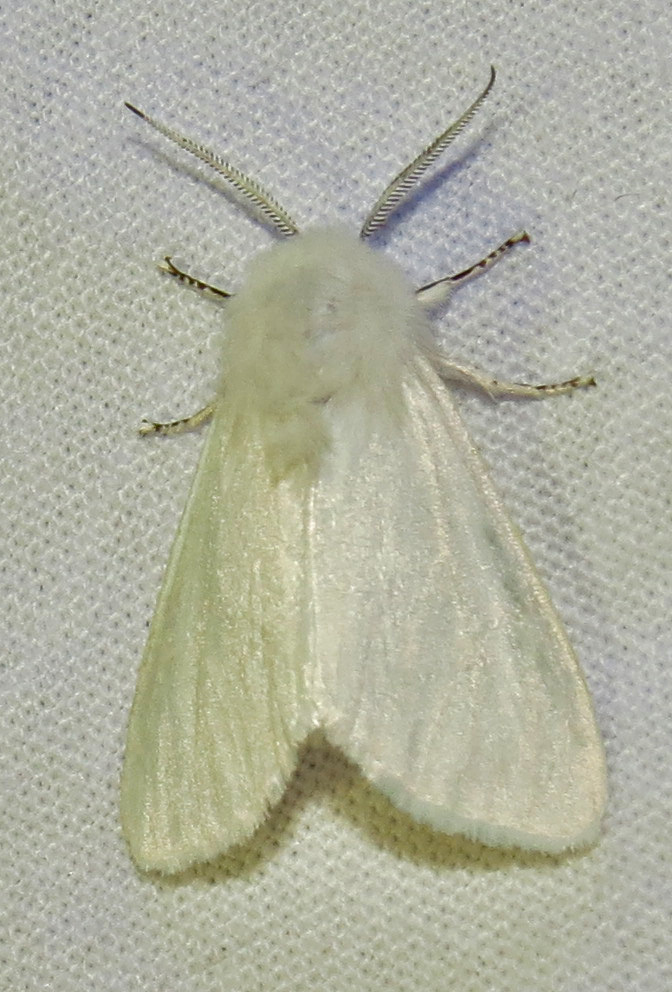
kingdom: Animalia
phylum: Arthropoda
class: Insecta
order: Lepidoptera
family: Erebidae
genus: Hyphantria
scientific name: Hyphantria cunea
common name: American white moth
